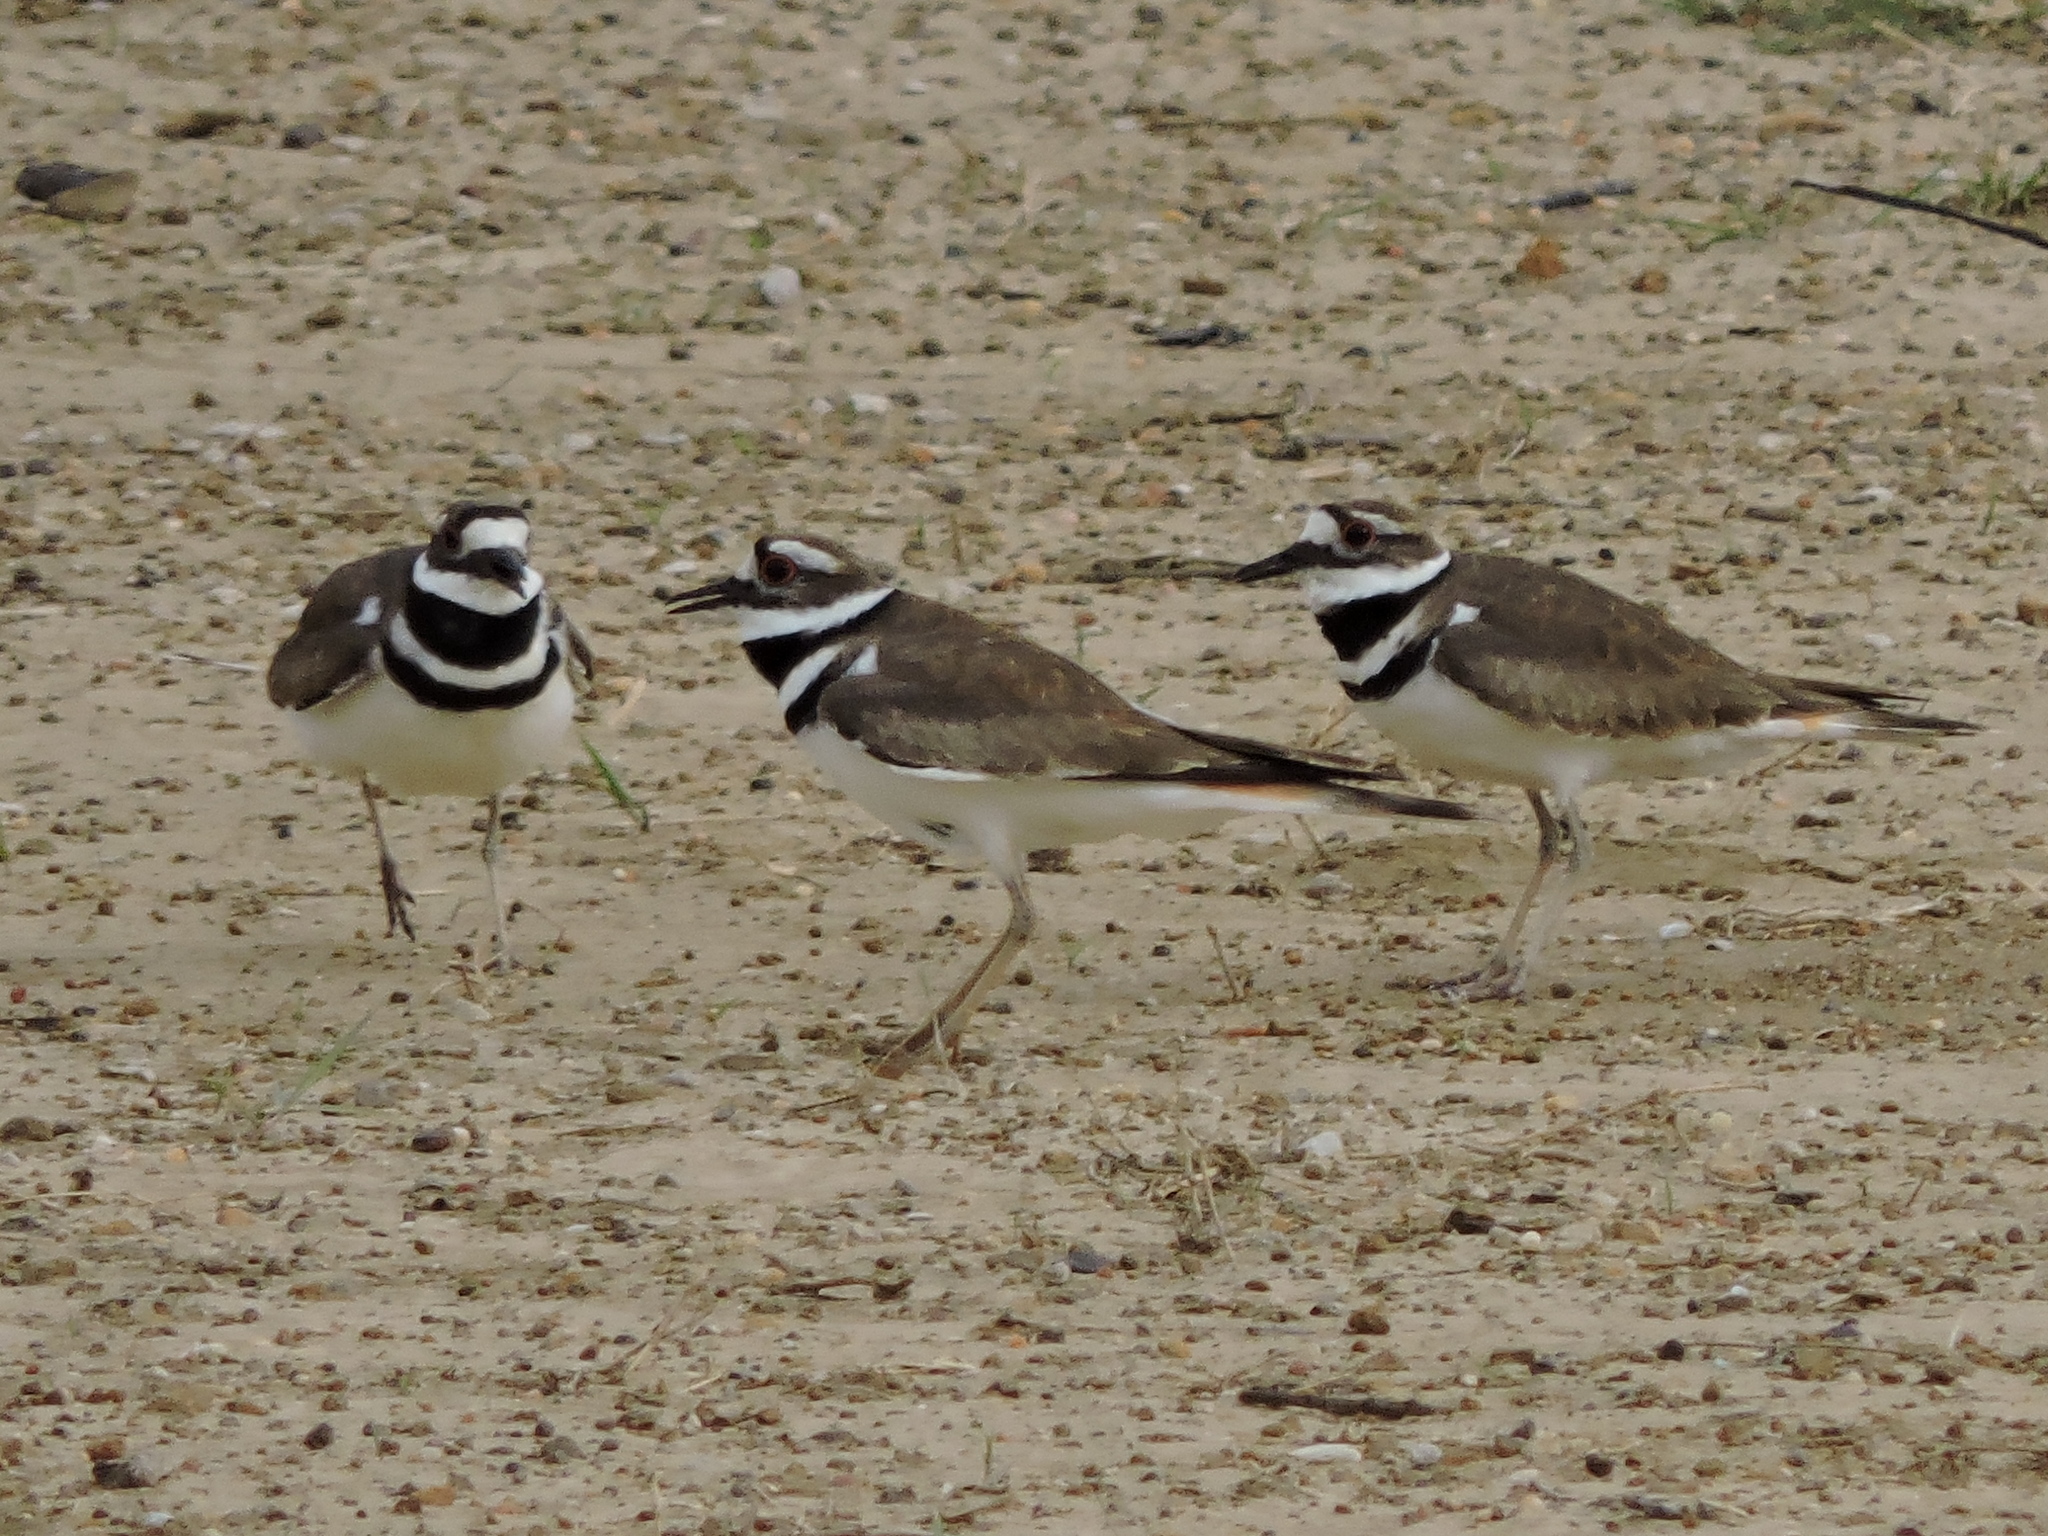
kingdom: Animalia
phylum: Chordata
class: Aves
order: Charadriiformes
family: Charadriidae
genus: Charadrius
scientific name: Charadrius vociferus
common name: Killdeer
